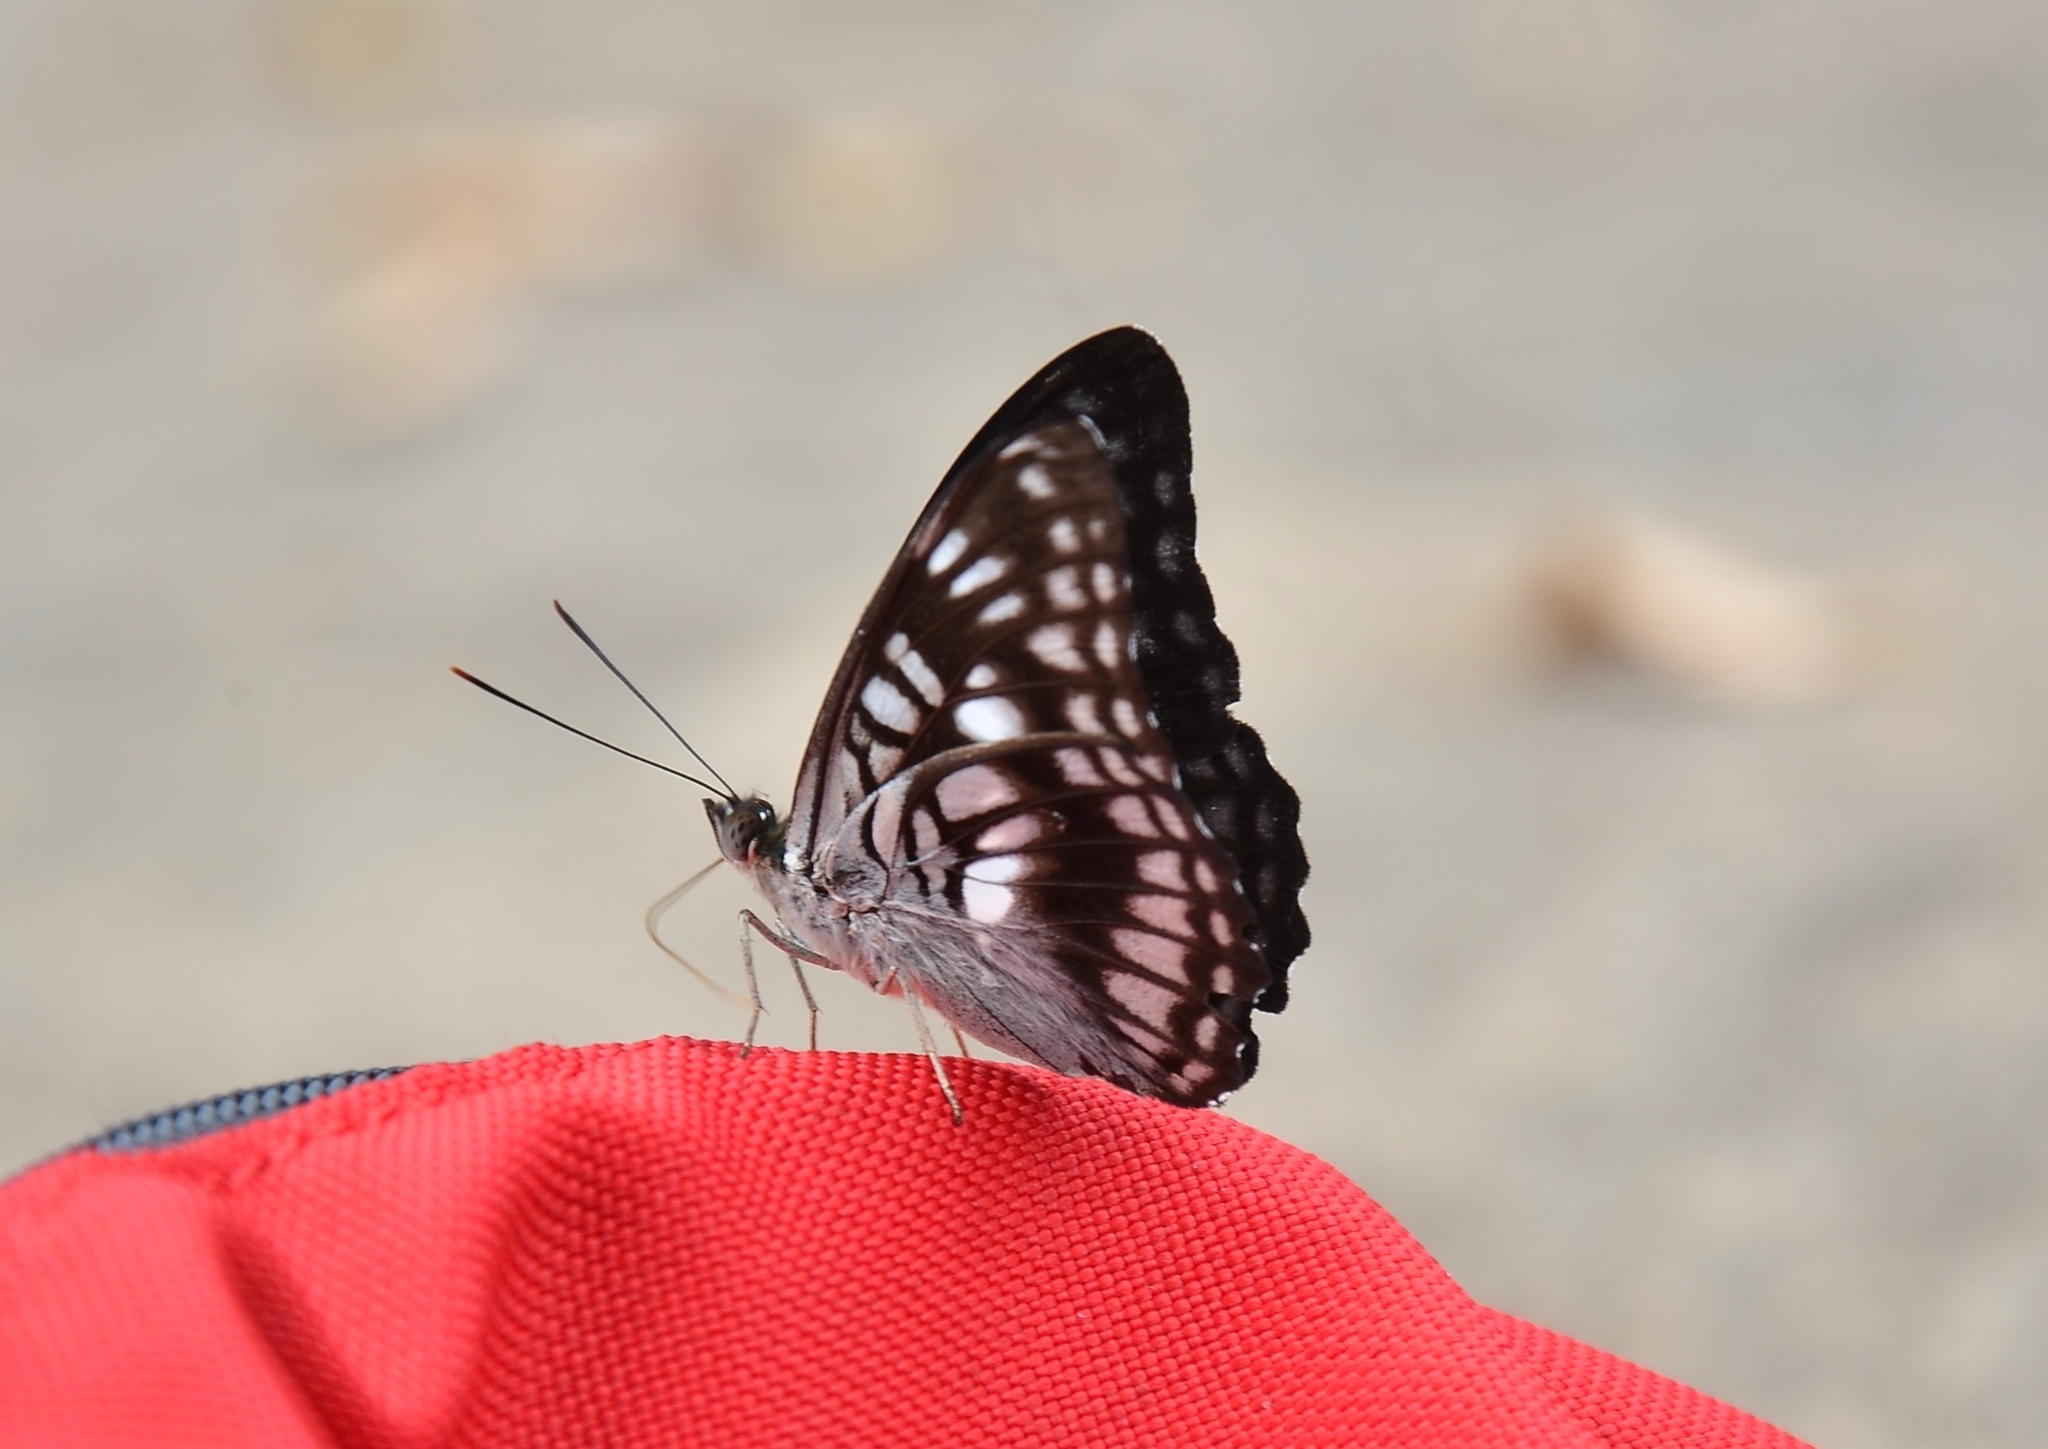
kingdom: Animalia
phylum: Arthropoda
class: Insecta
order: Lepidoptera
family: Nymphalidae
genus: Parathyma
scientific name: Parathyma ranga
